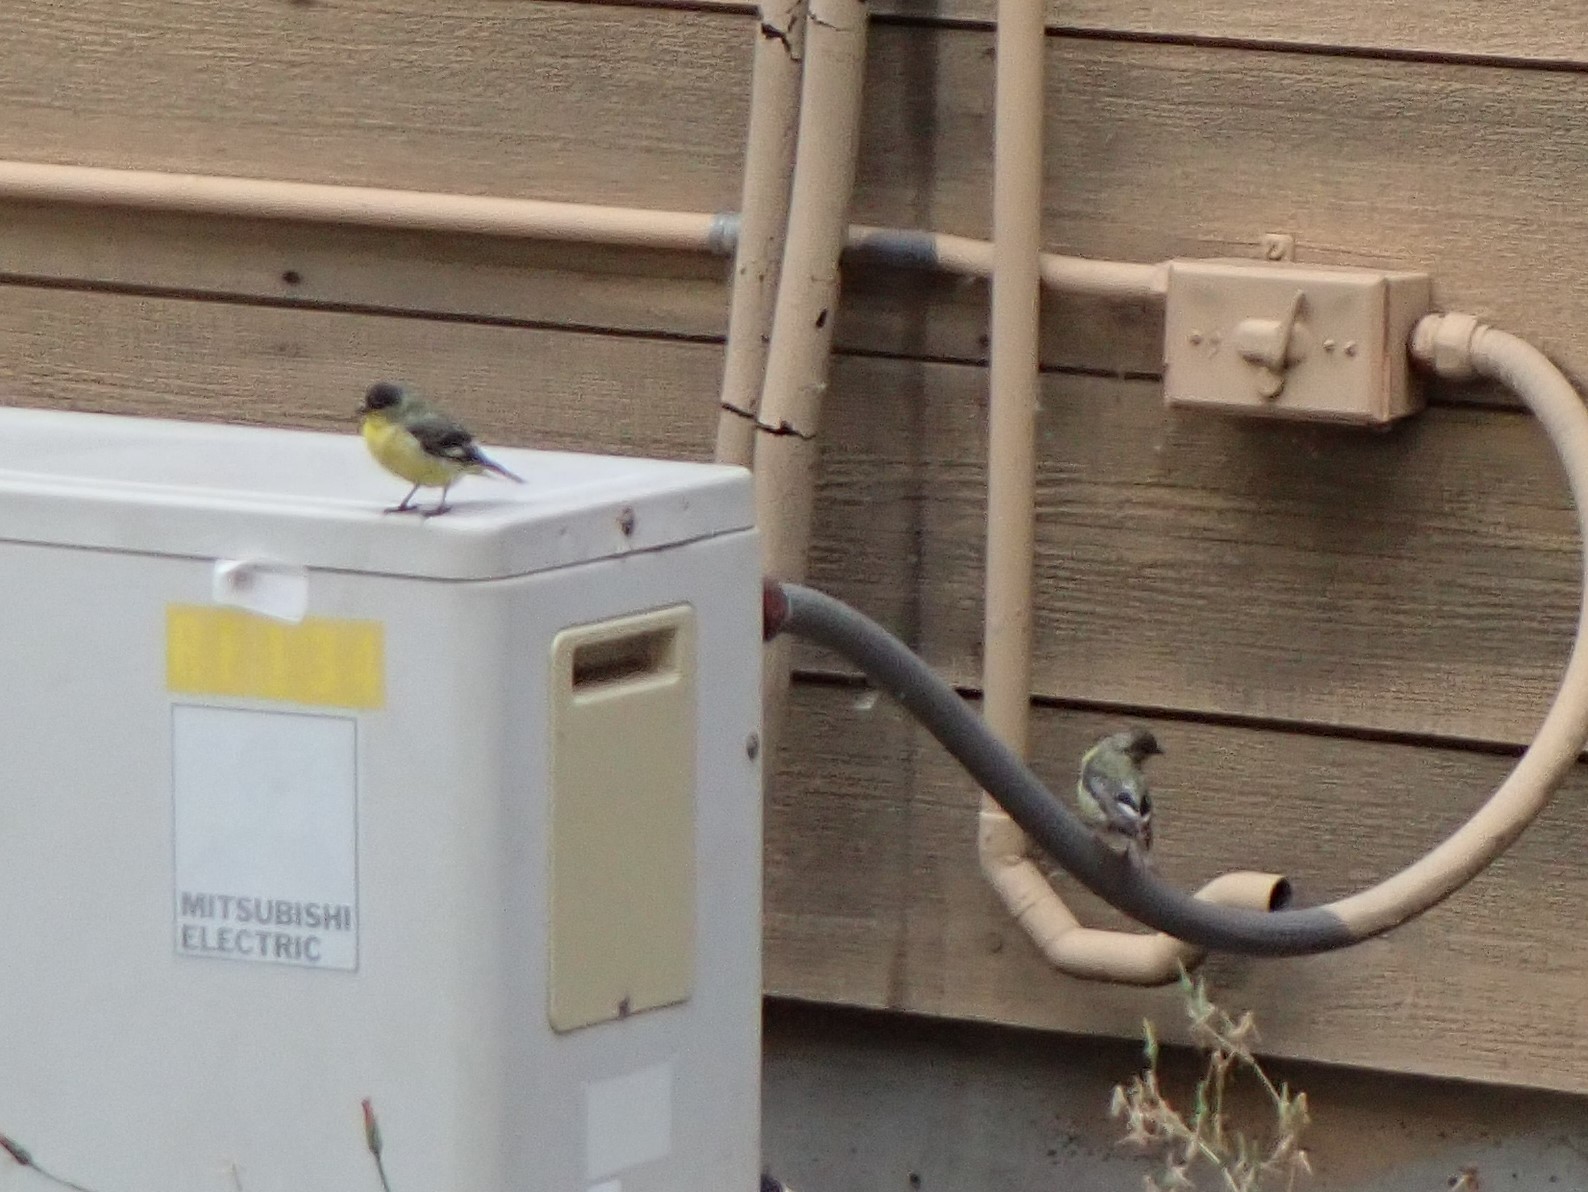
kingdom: Animalia
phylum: Chordata
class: Aves
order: Passeriformes
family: Fringillidae
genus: Spinus
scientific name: Spinus psaltria
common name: Lesser goldfinch
